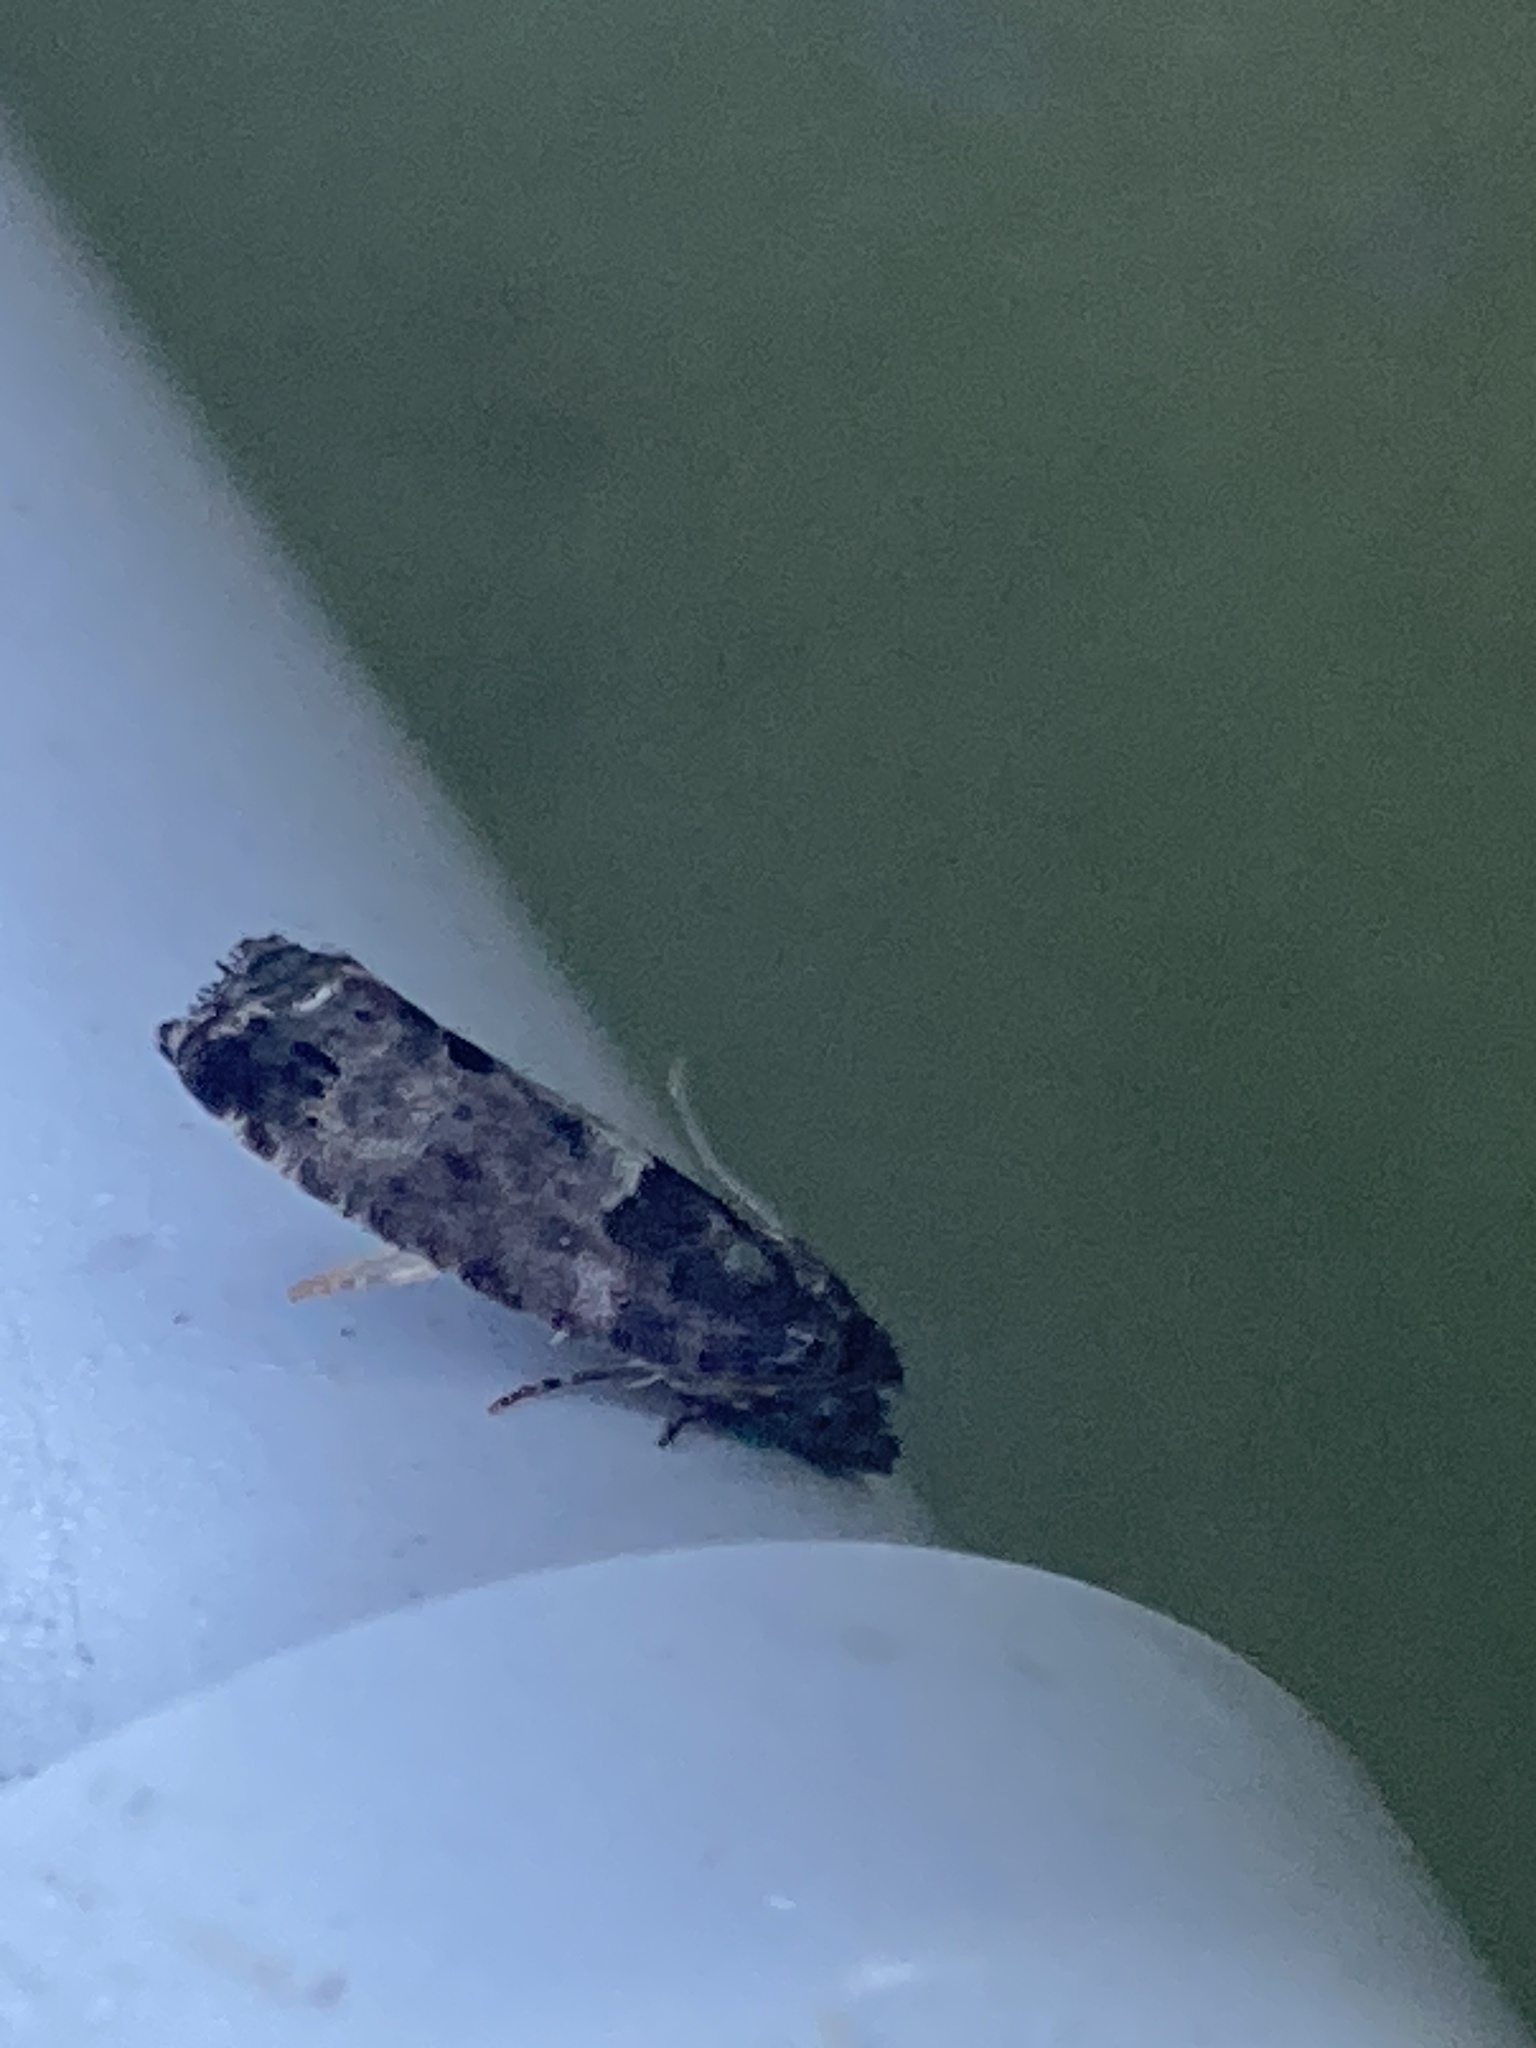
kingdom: Animalia
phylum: Arthropoda
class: Insecta
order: Lepidoptera
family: Tortricidae
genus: Spilonota
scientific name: Spilonota ocellana
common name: Bud moth
